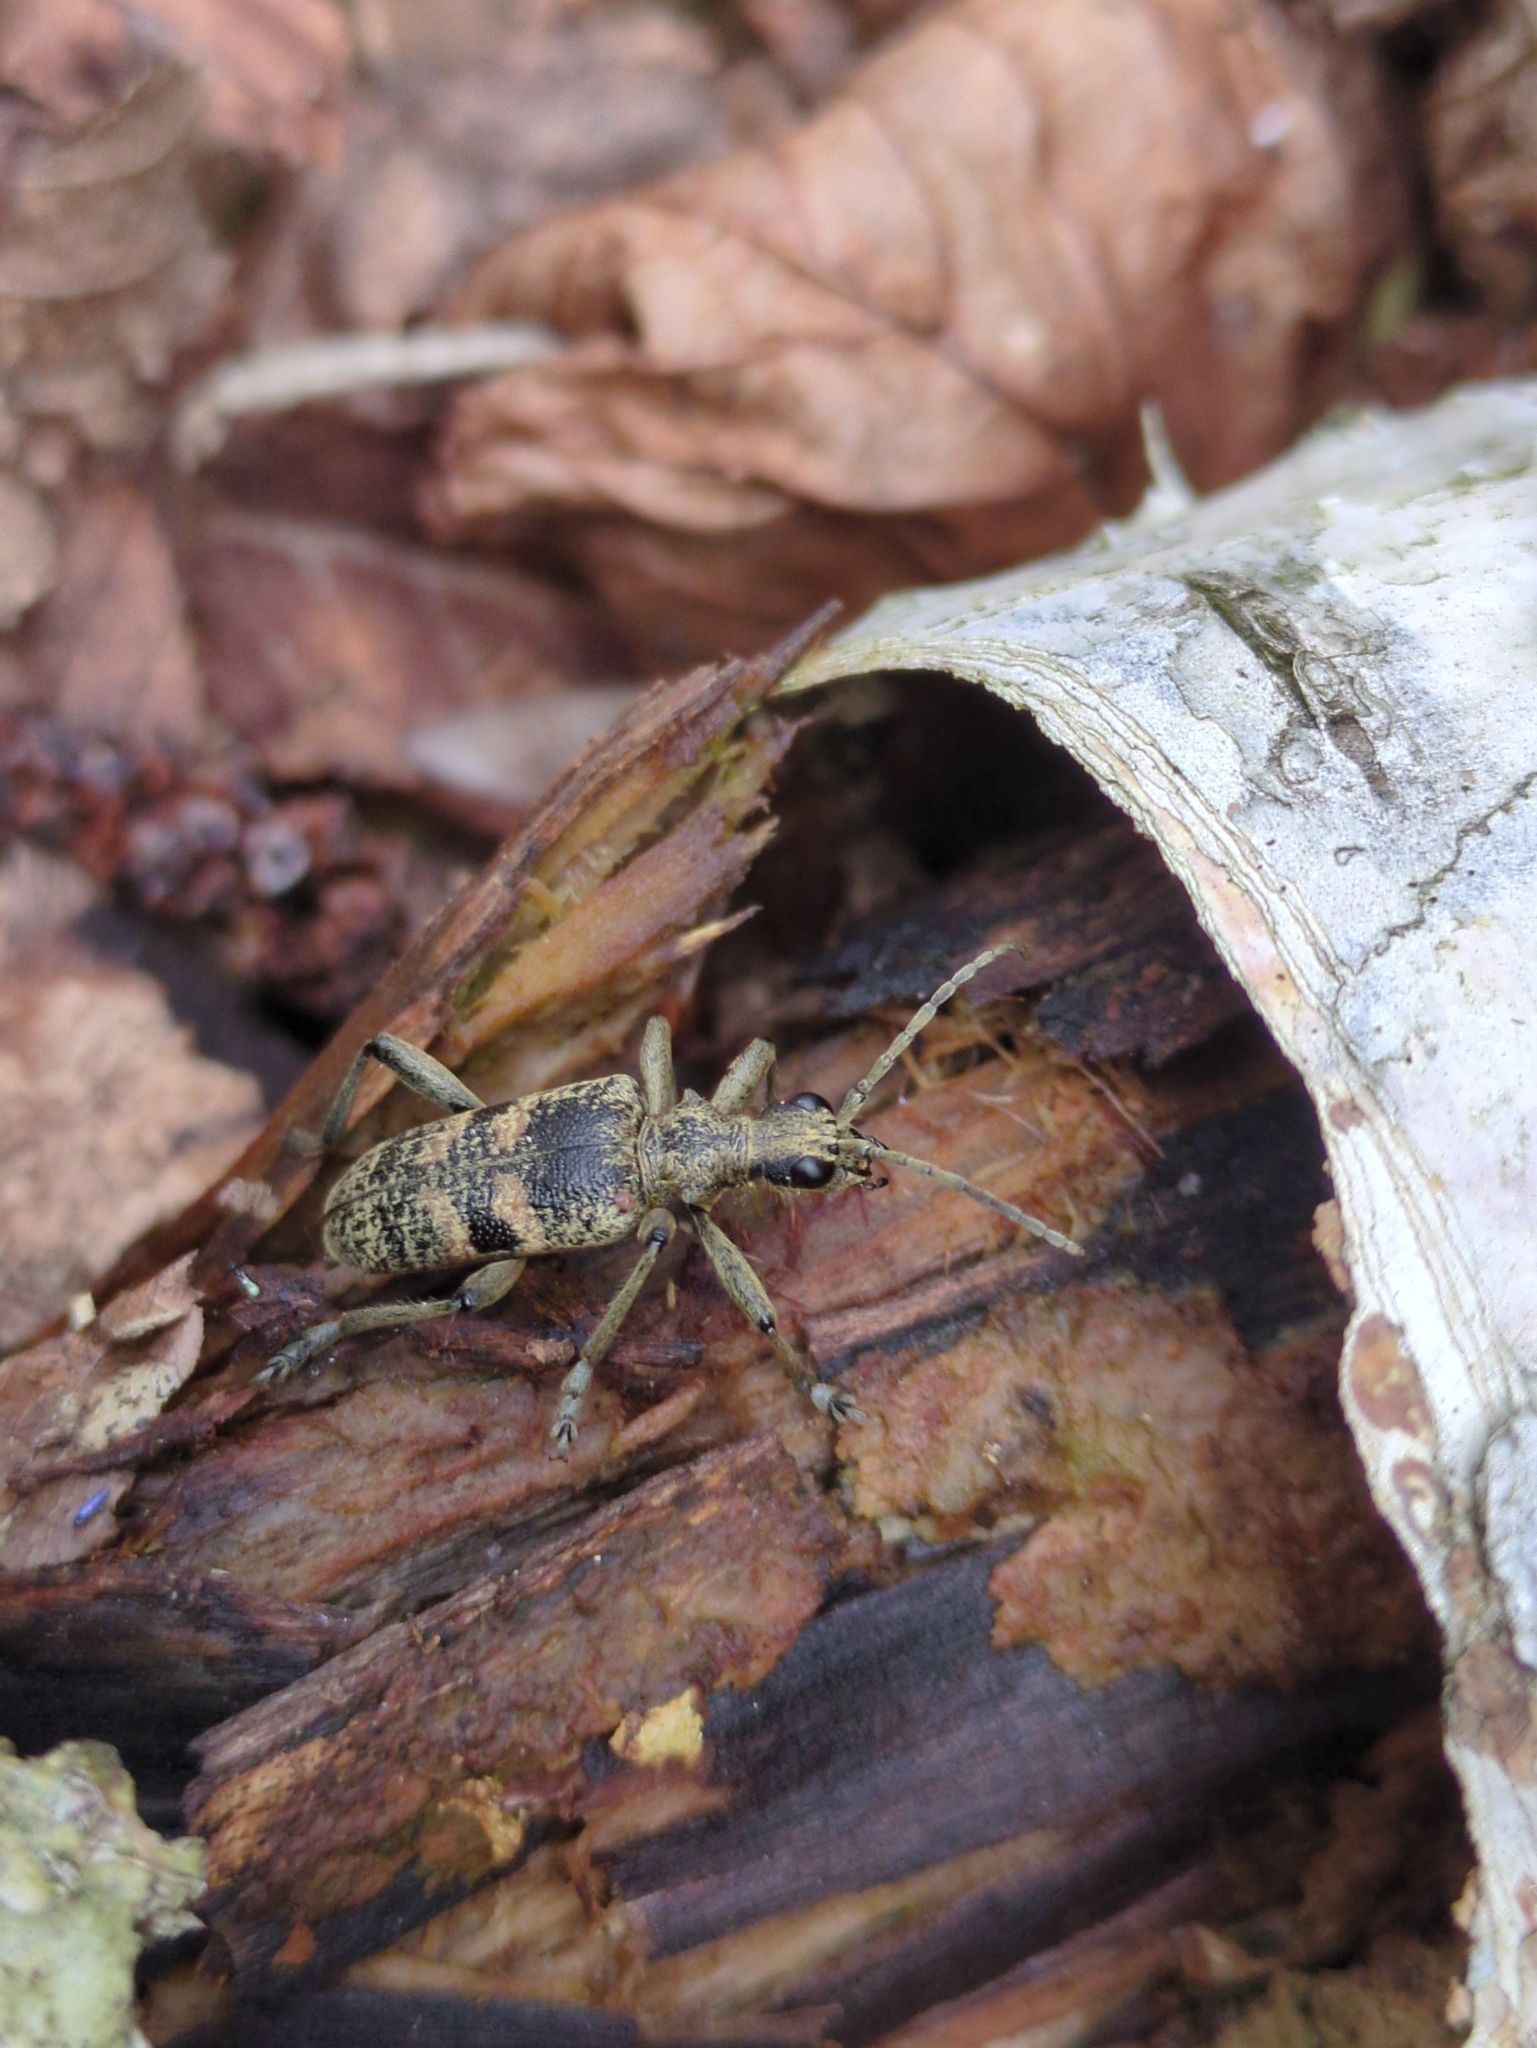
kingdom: Animalia
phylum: Arthropoda
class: Insecta
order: Coleoptera
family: Cerambycidae
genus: Rhagium
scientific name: Rhagium mordax
